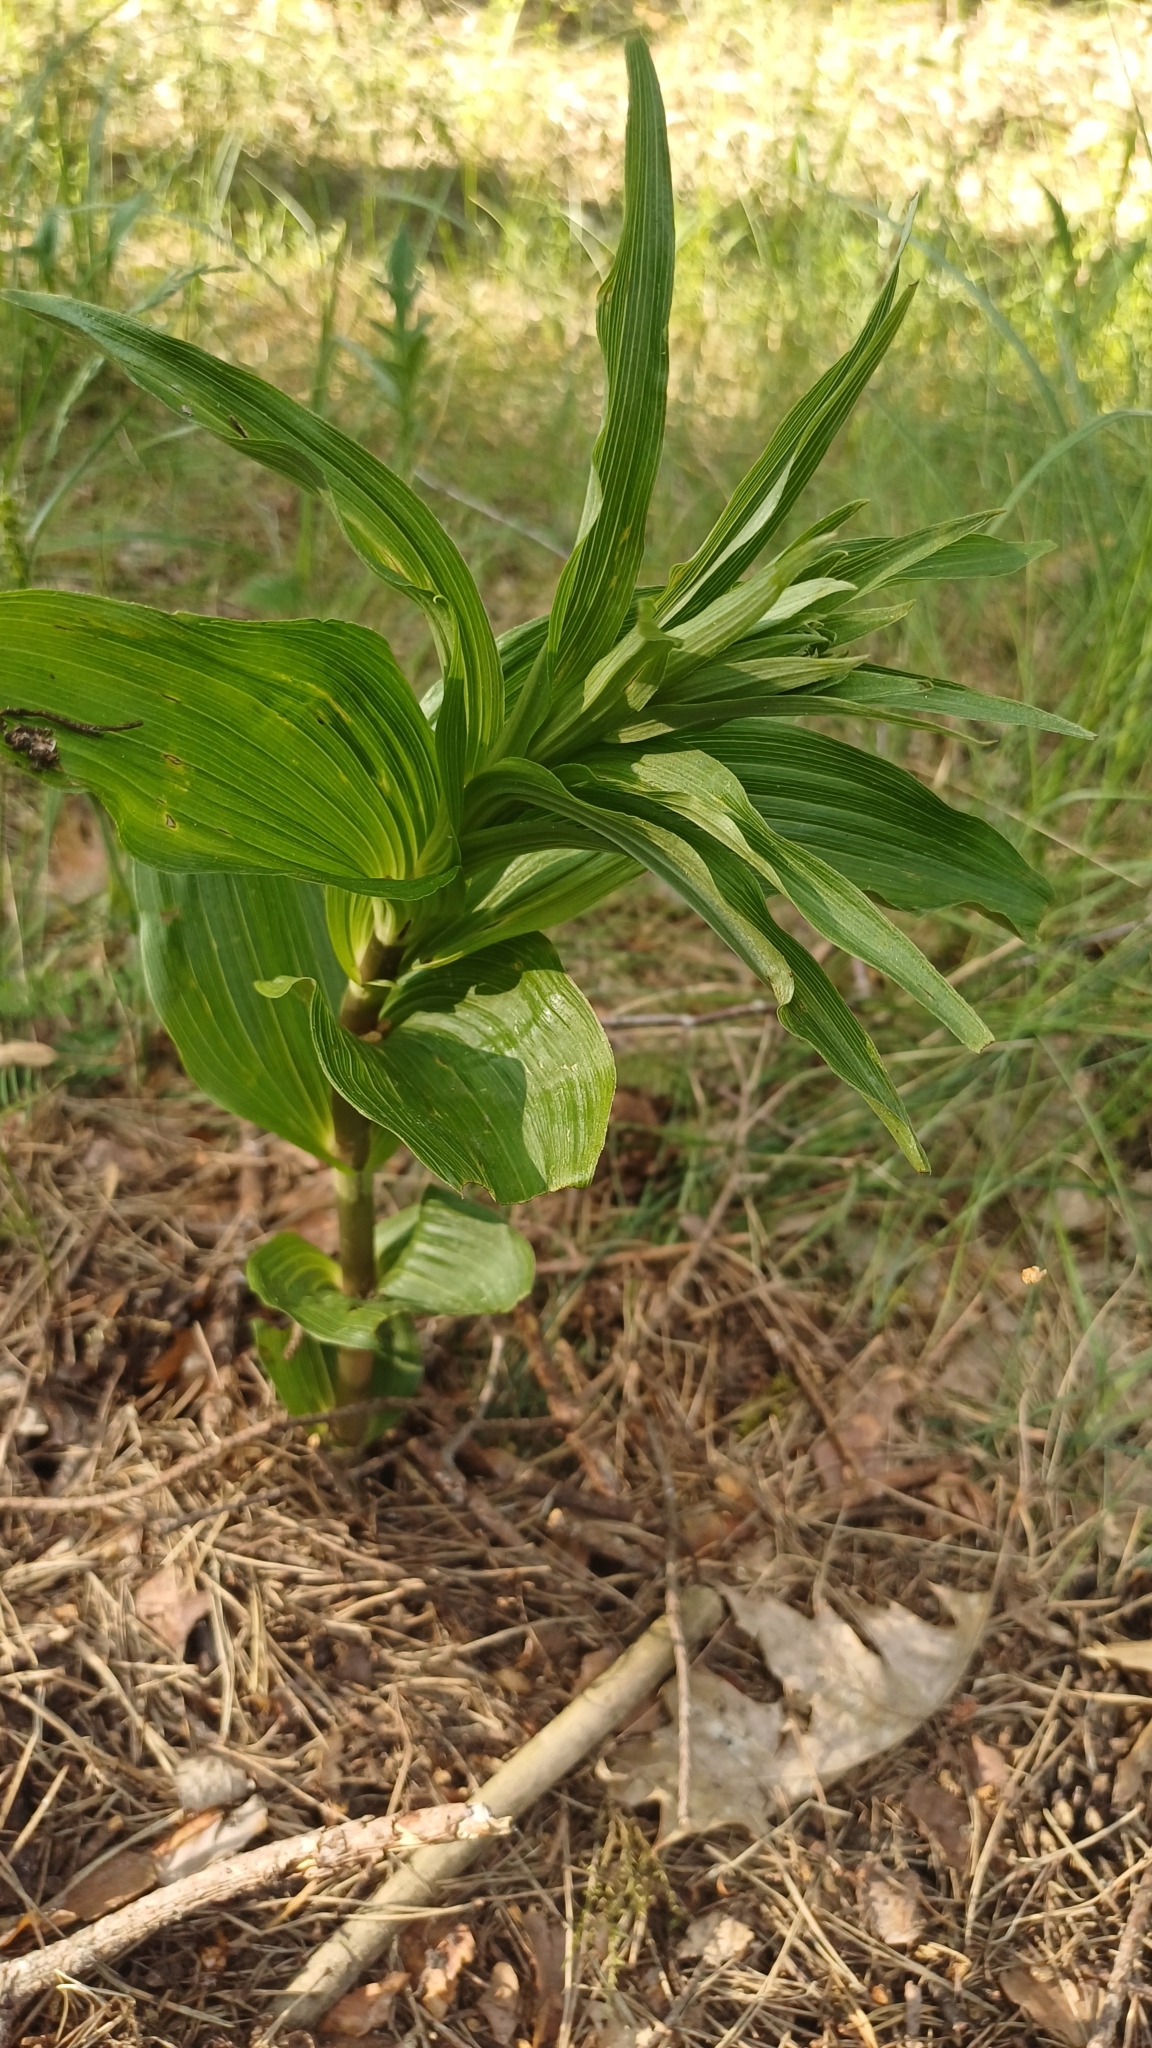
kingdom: Plantae
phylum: Tracheophyta
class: Liliopsida
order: Asparagales
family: Orchidaceae
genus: Epipactis
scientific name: Epipactis helleborine
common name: Broad-leaved helleborine
